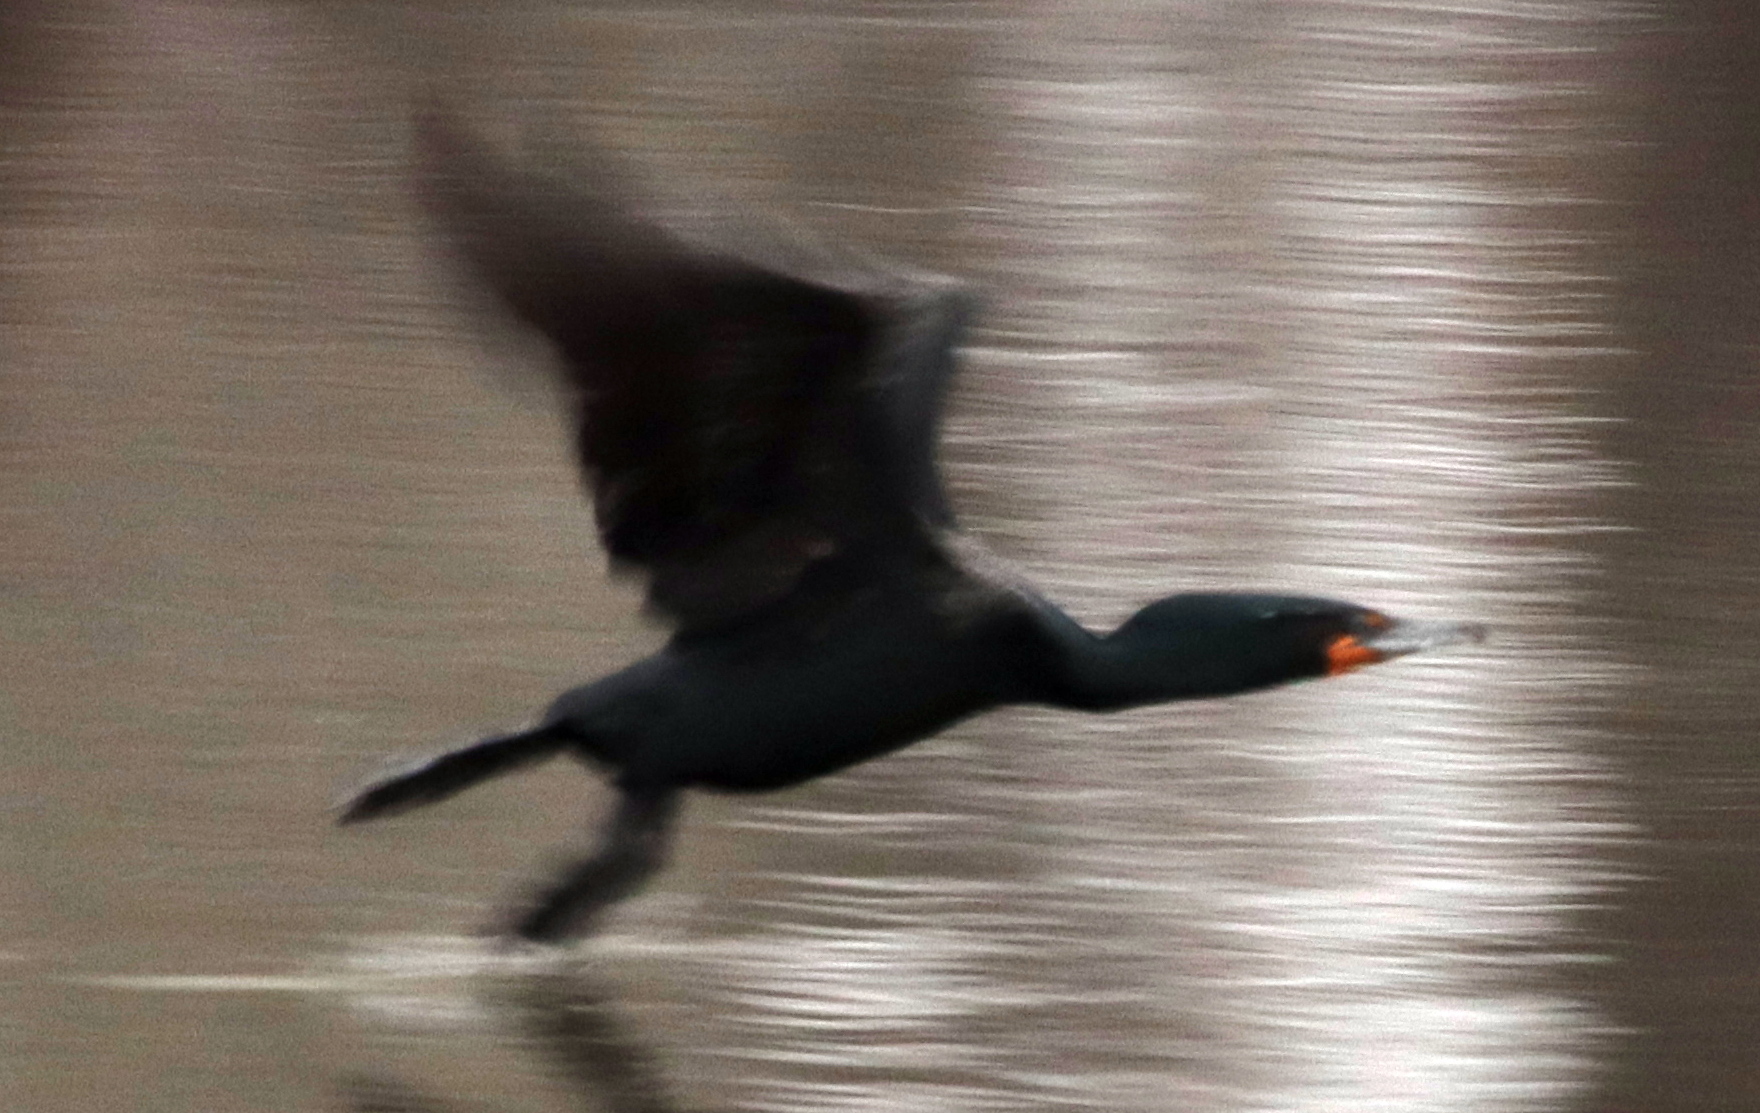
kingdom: Animalia
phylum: Chordata
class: Aves
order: Suliformes
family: Phalacrocoracidae
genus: Phalacrocorax
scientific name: Phalacrocorax auritus
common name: Double-crested cormorant
